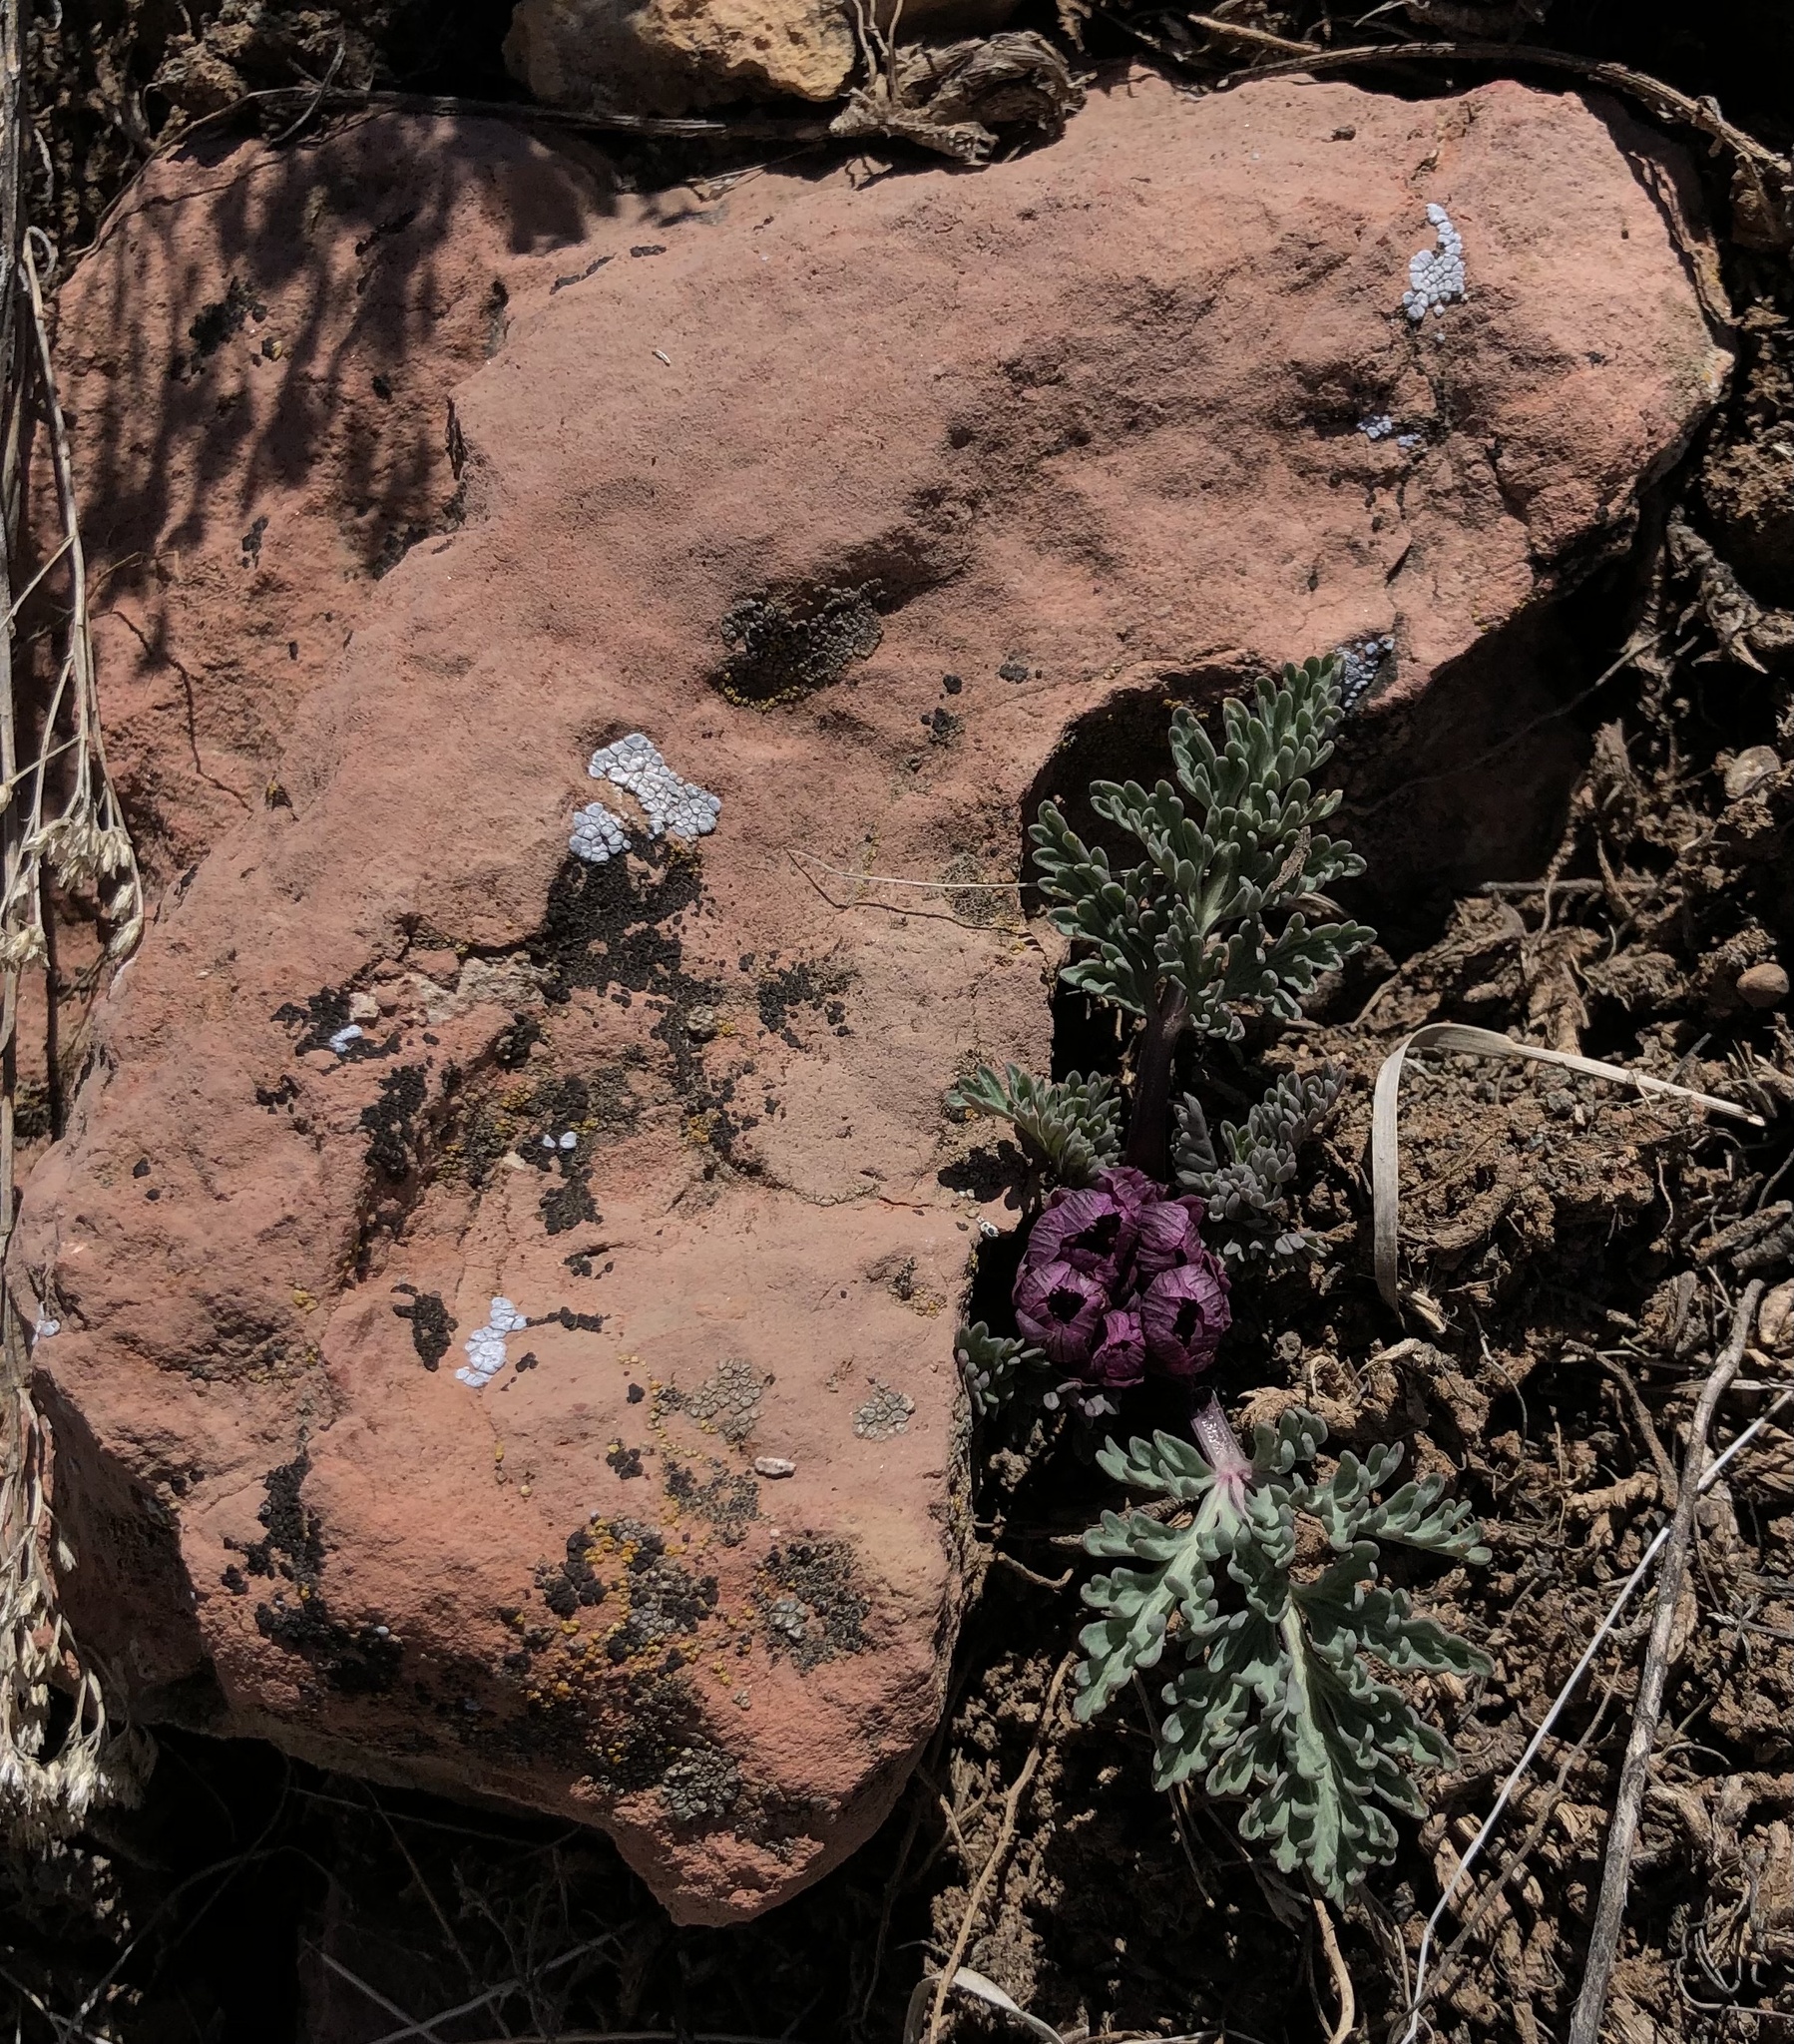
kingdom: Plantae
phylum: Tracheophyta
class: Magnoliopsida
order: Apiales
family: Apiaceae
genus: Vesper
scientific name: Vesper multinervatus
